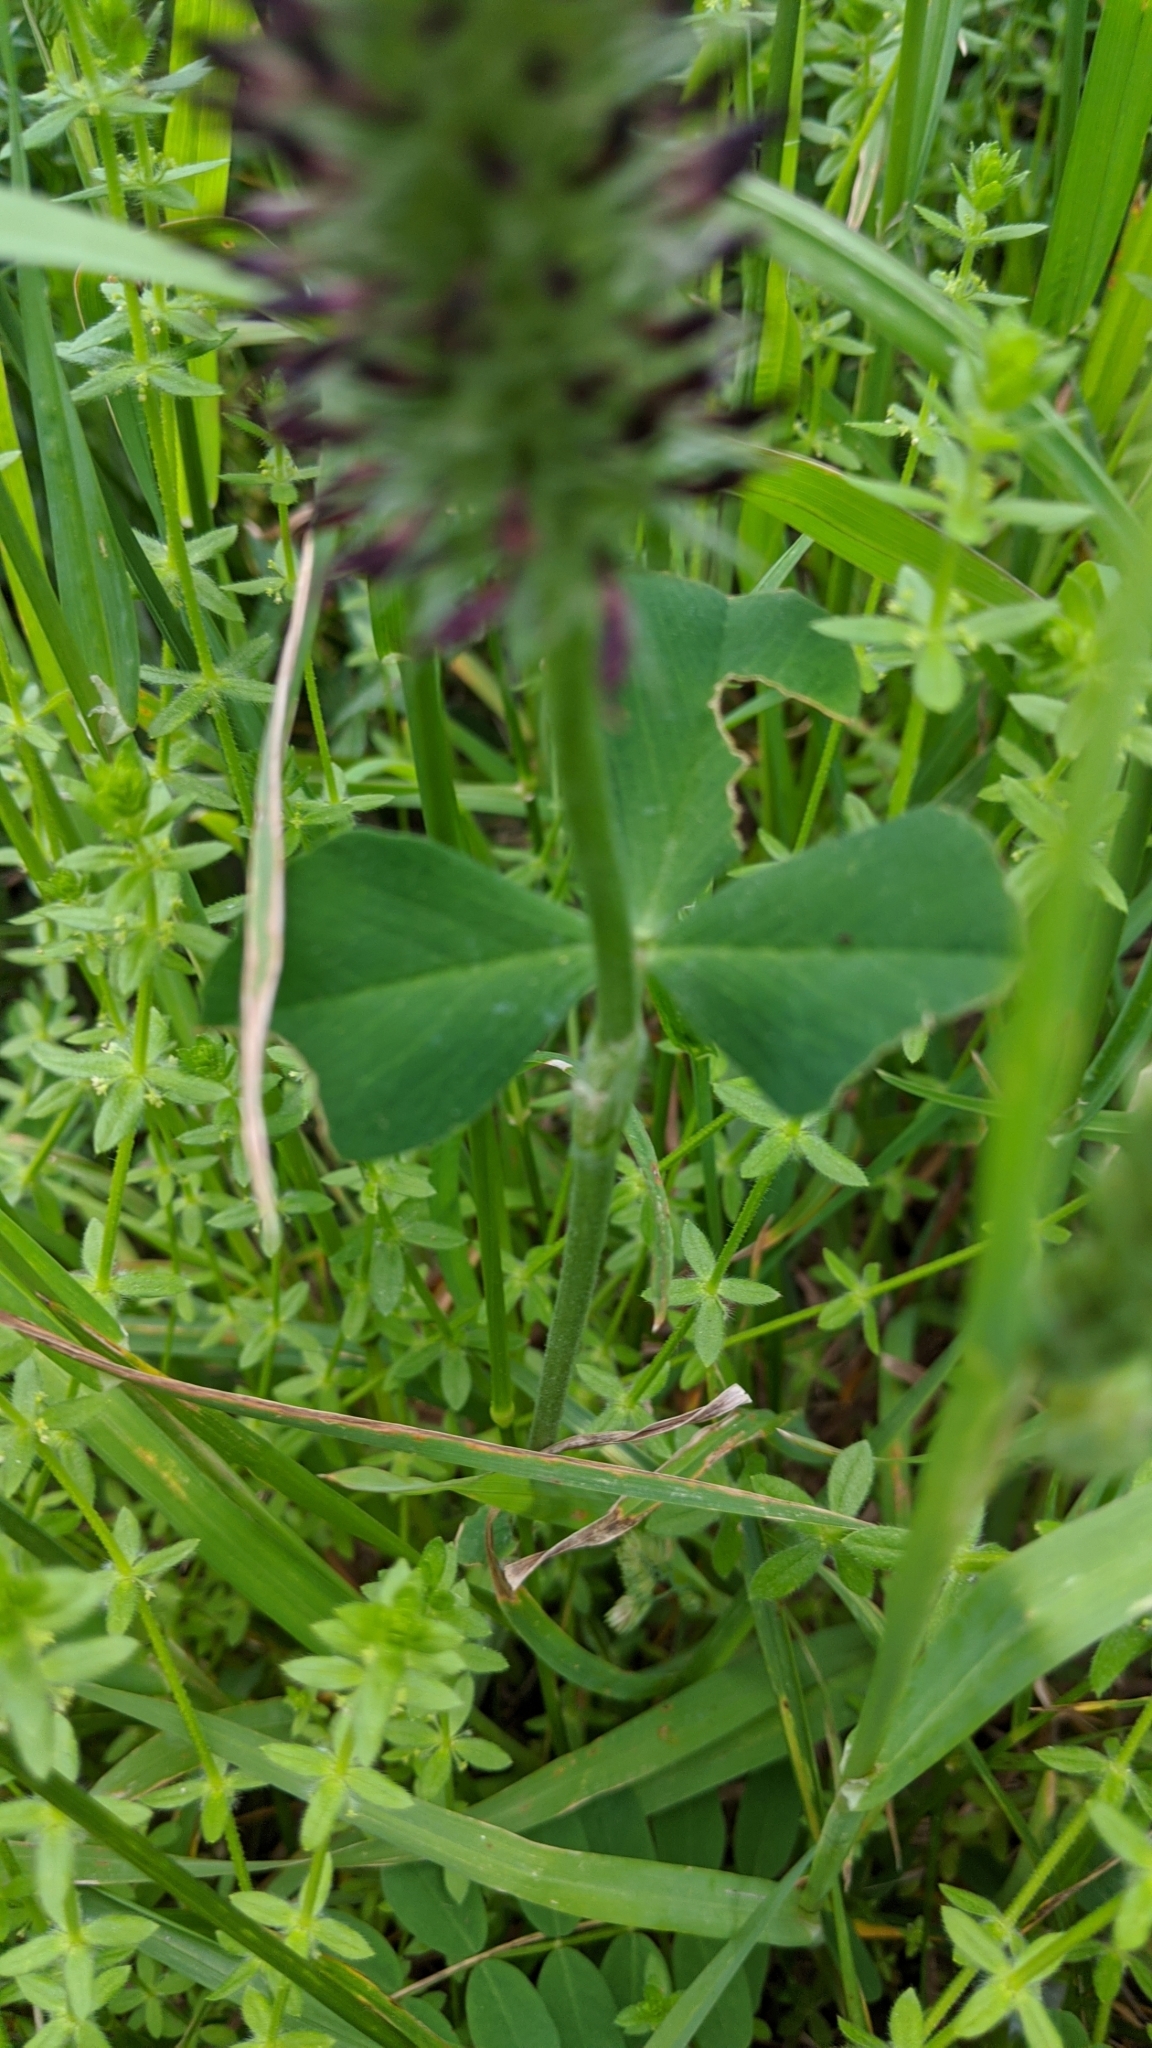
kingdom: Plantae
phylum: Tracheophyta
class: Magnoliopsida
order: Fabales
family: Fabaceae
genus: Trifolium
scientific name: Trifolium incarnatum
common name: Crimson clover
